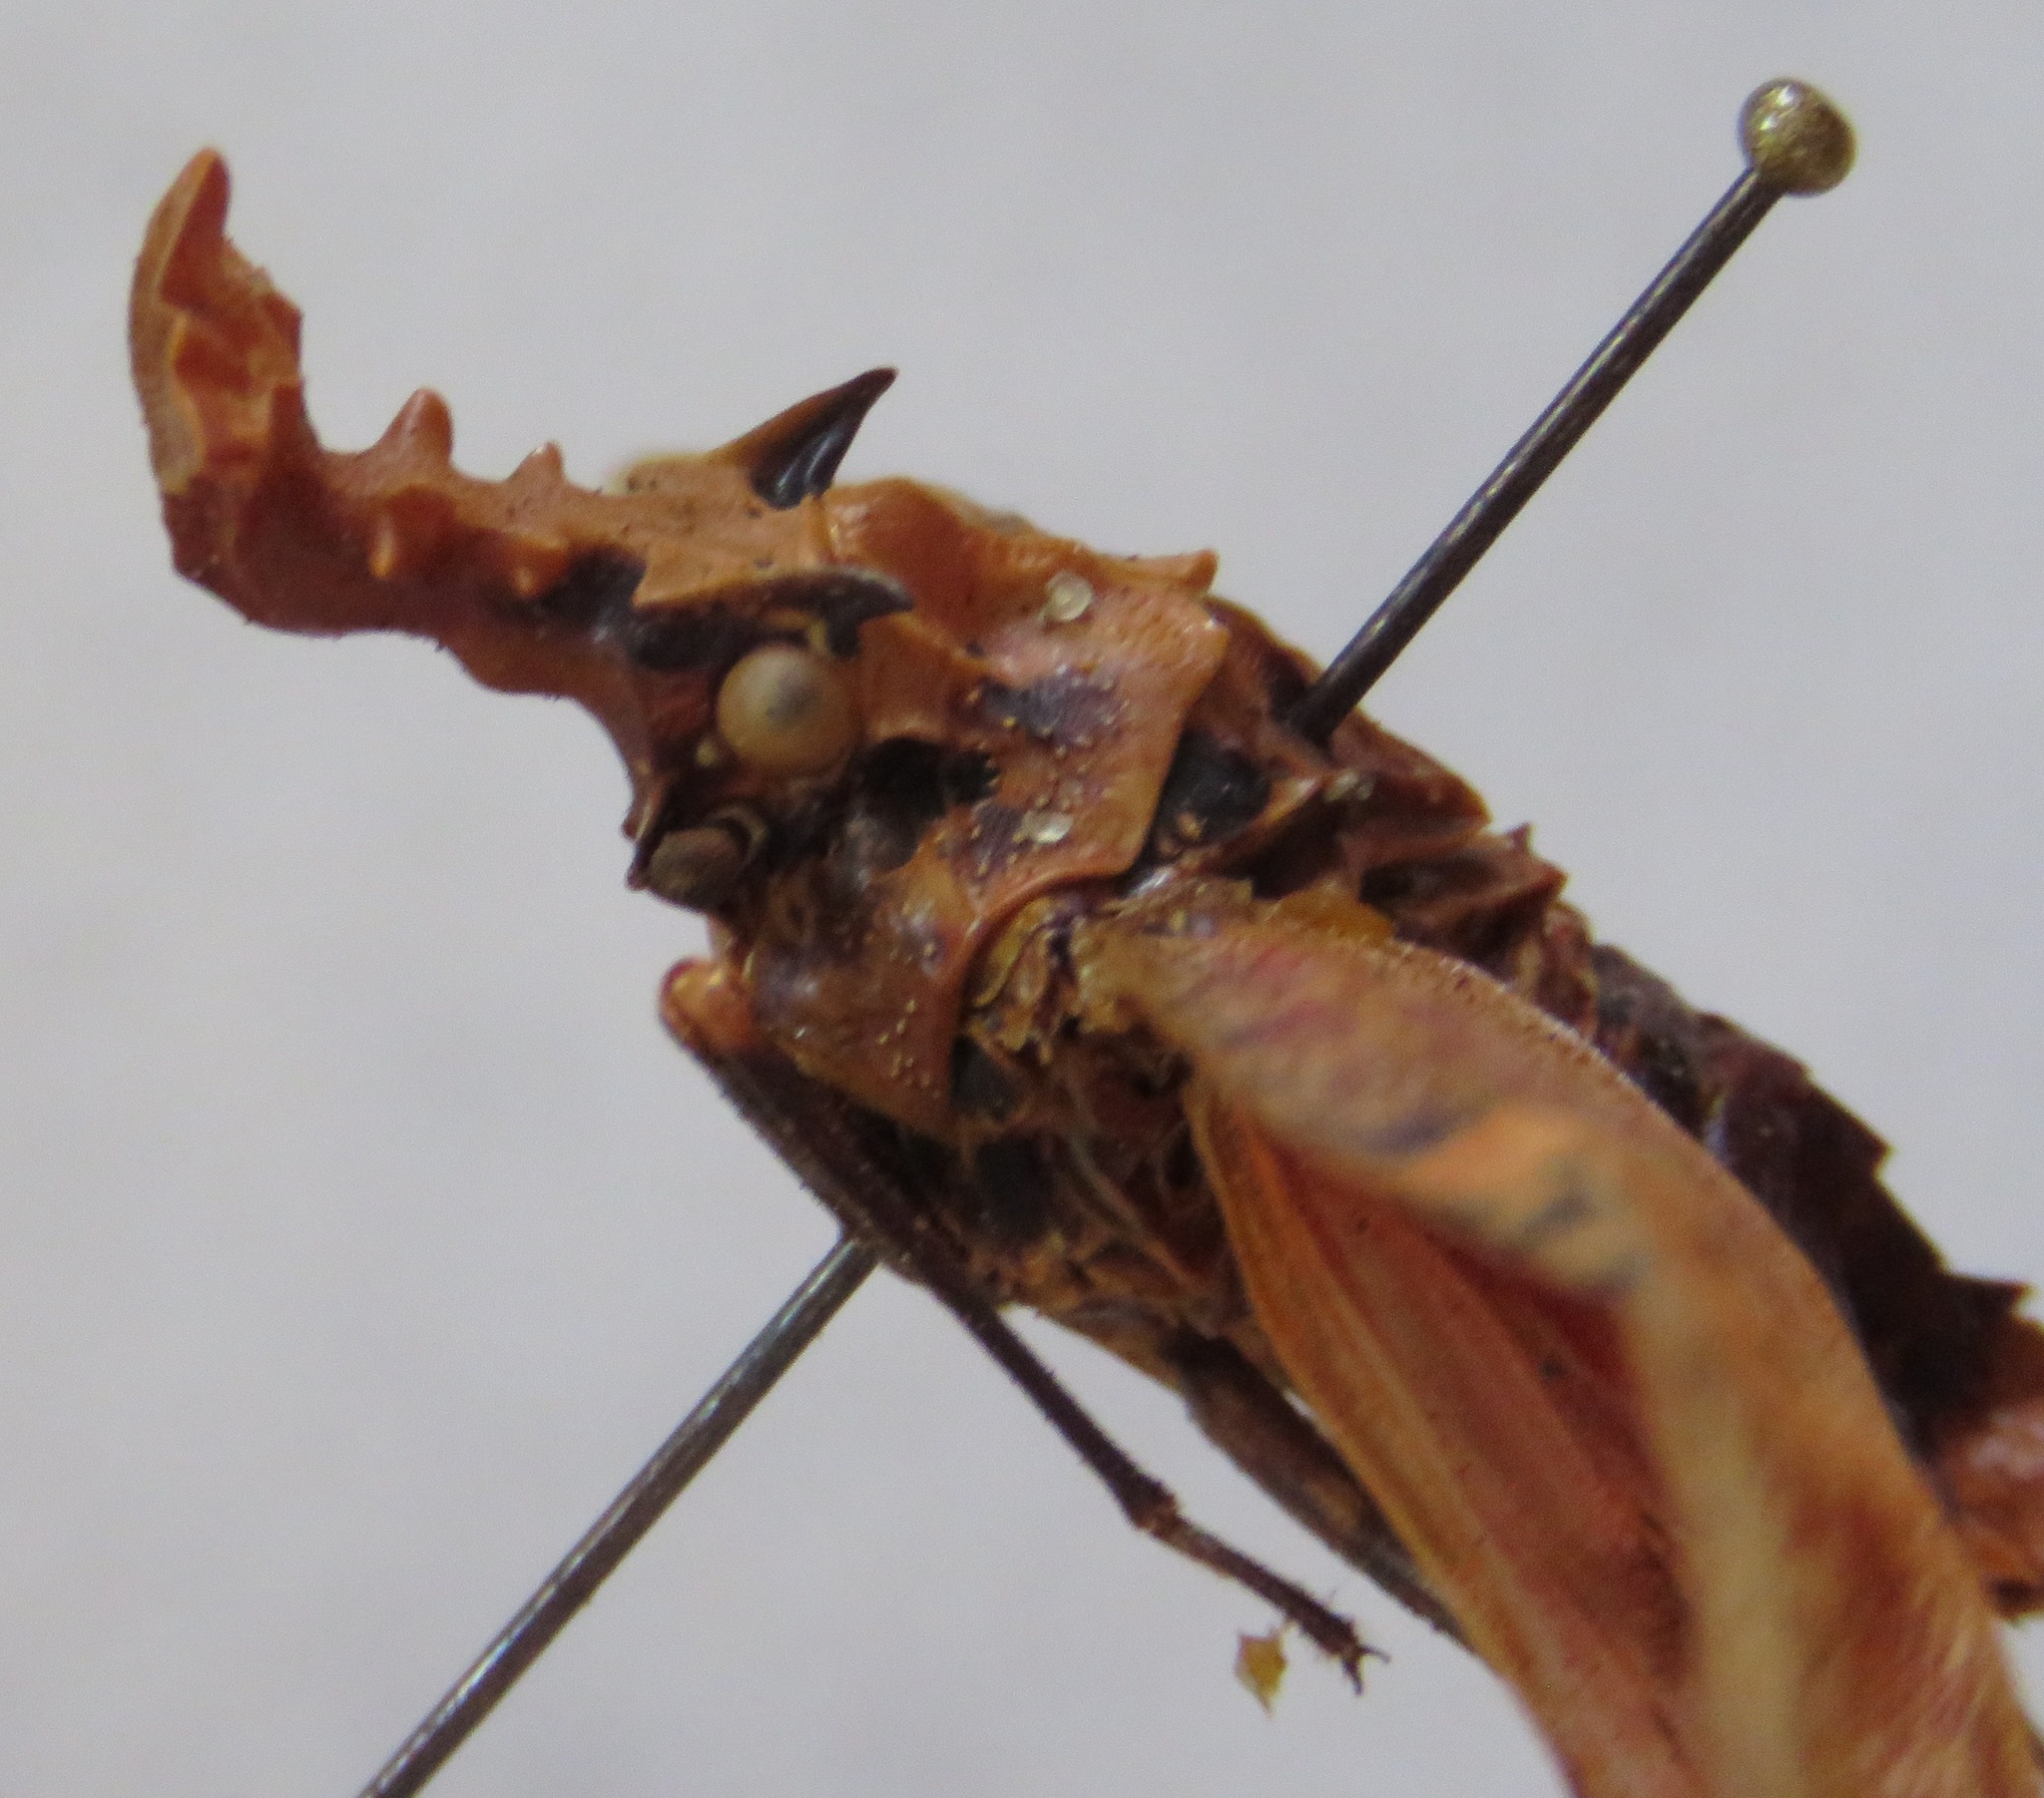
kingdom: Animalia
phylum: Arthropoda
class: Insecta
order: Hemiptera
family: Fulgoridae
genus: Phrictus
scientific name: Phrictus tripartitus
